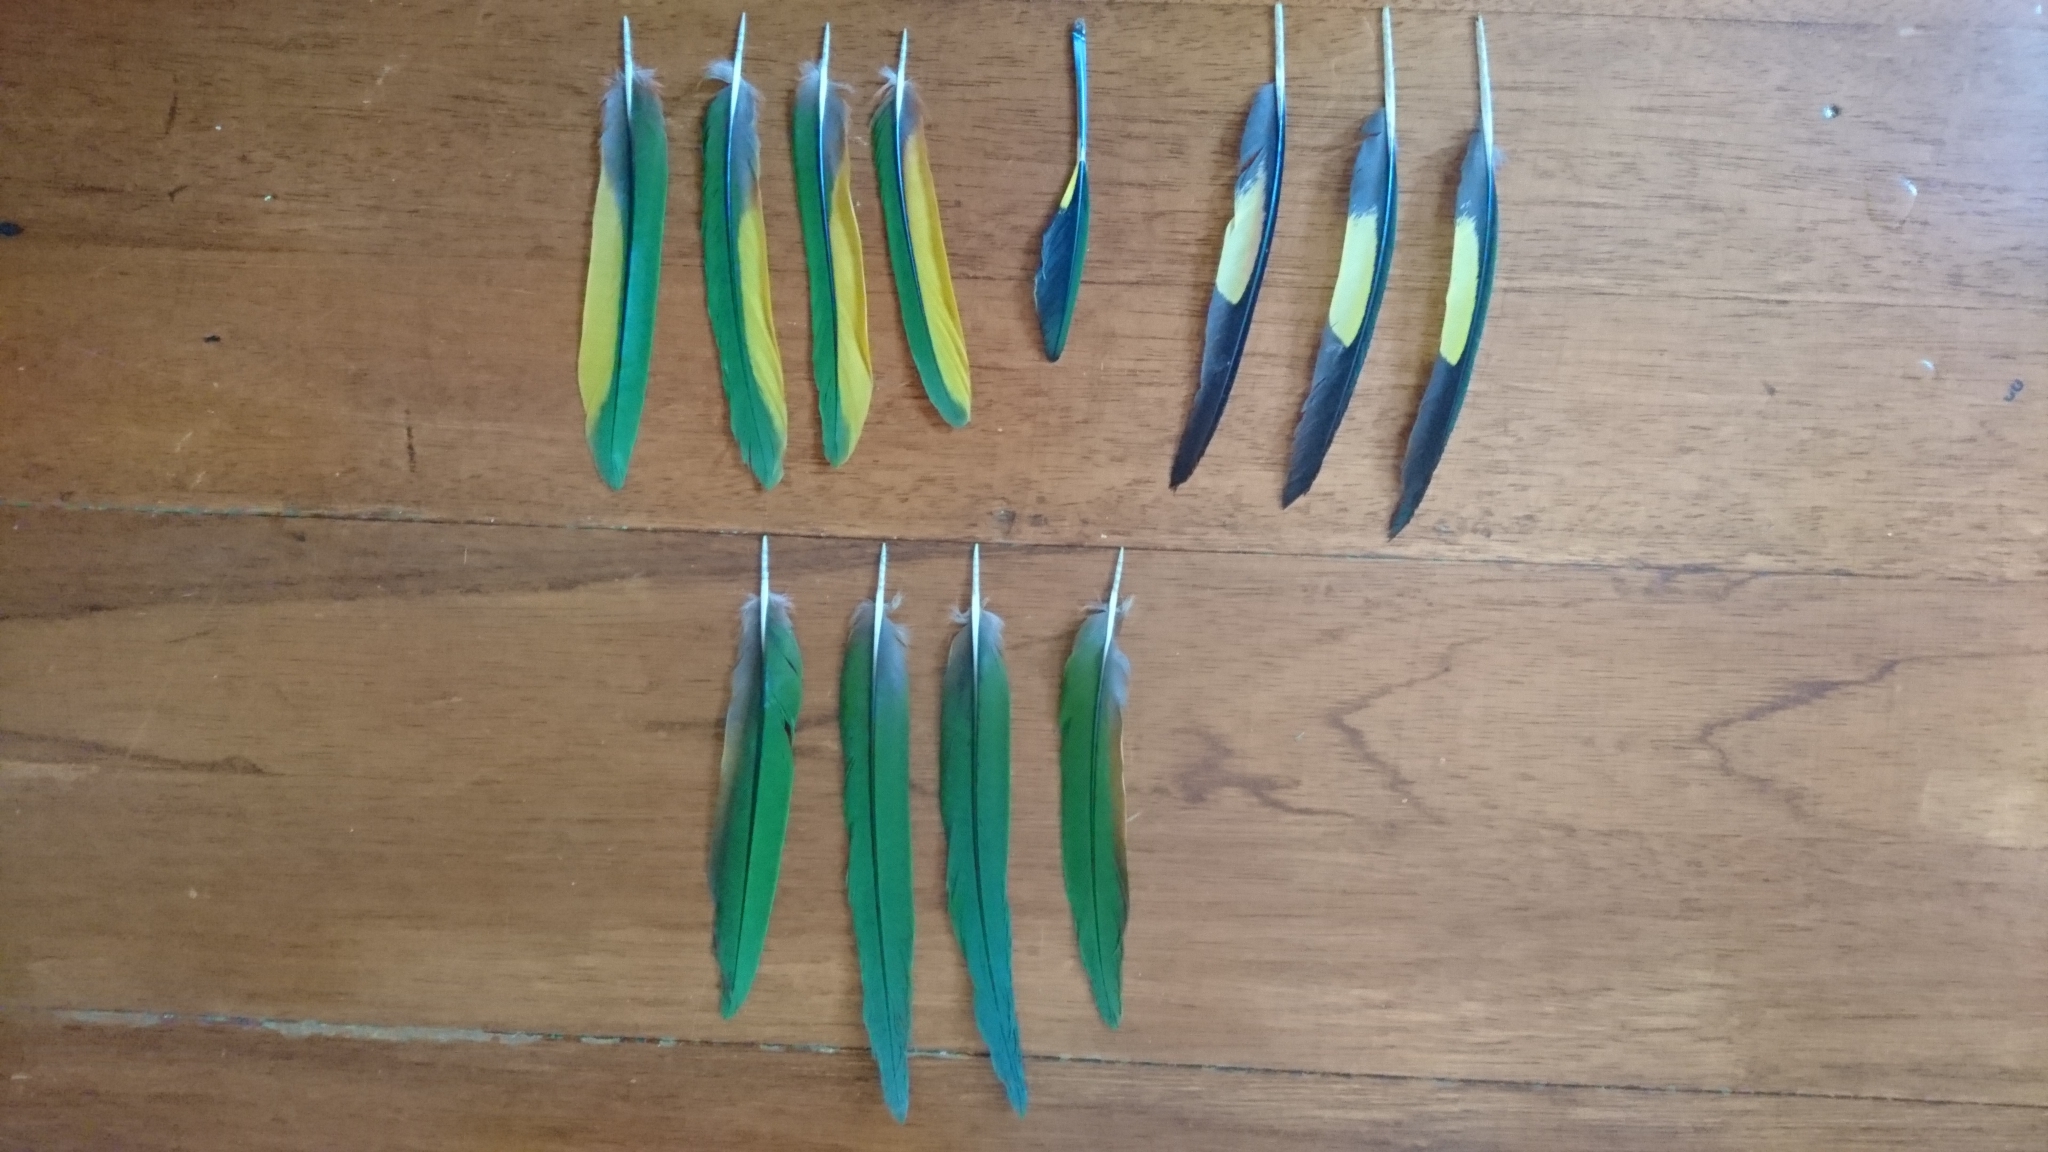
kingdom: Animalia
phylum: Chordata
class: Aves
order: Psittaciformes
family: Psittacidae
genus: Trichoglossus
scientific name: Trichoglossus haematodus
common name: Coconut lorikeet
